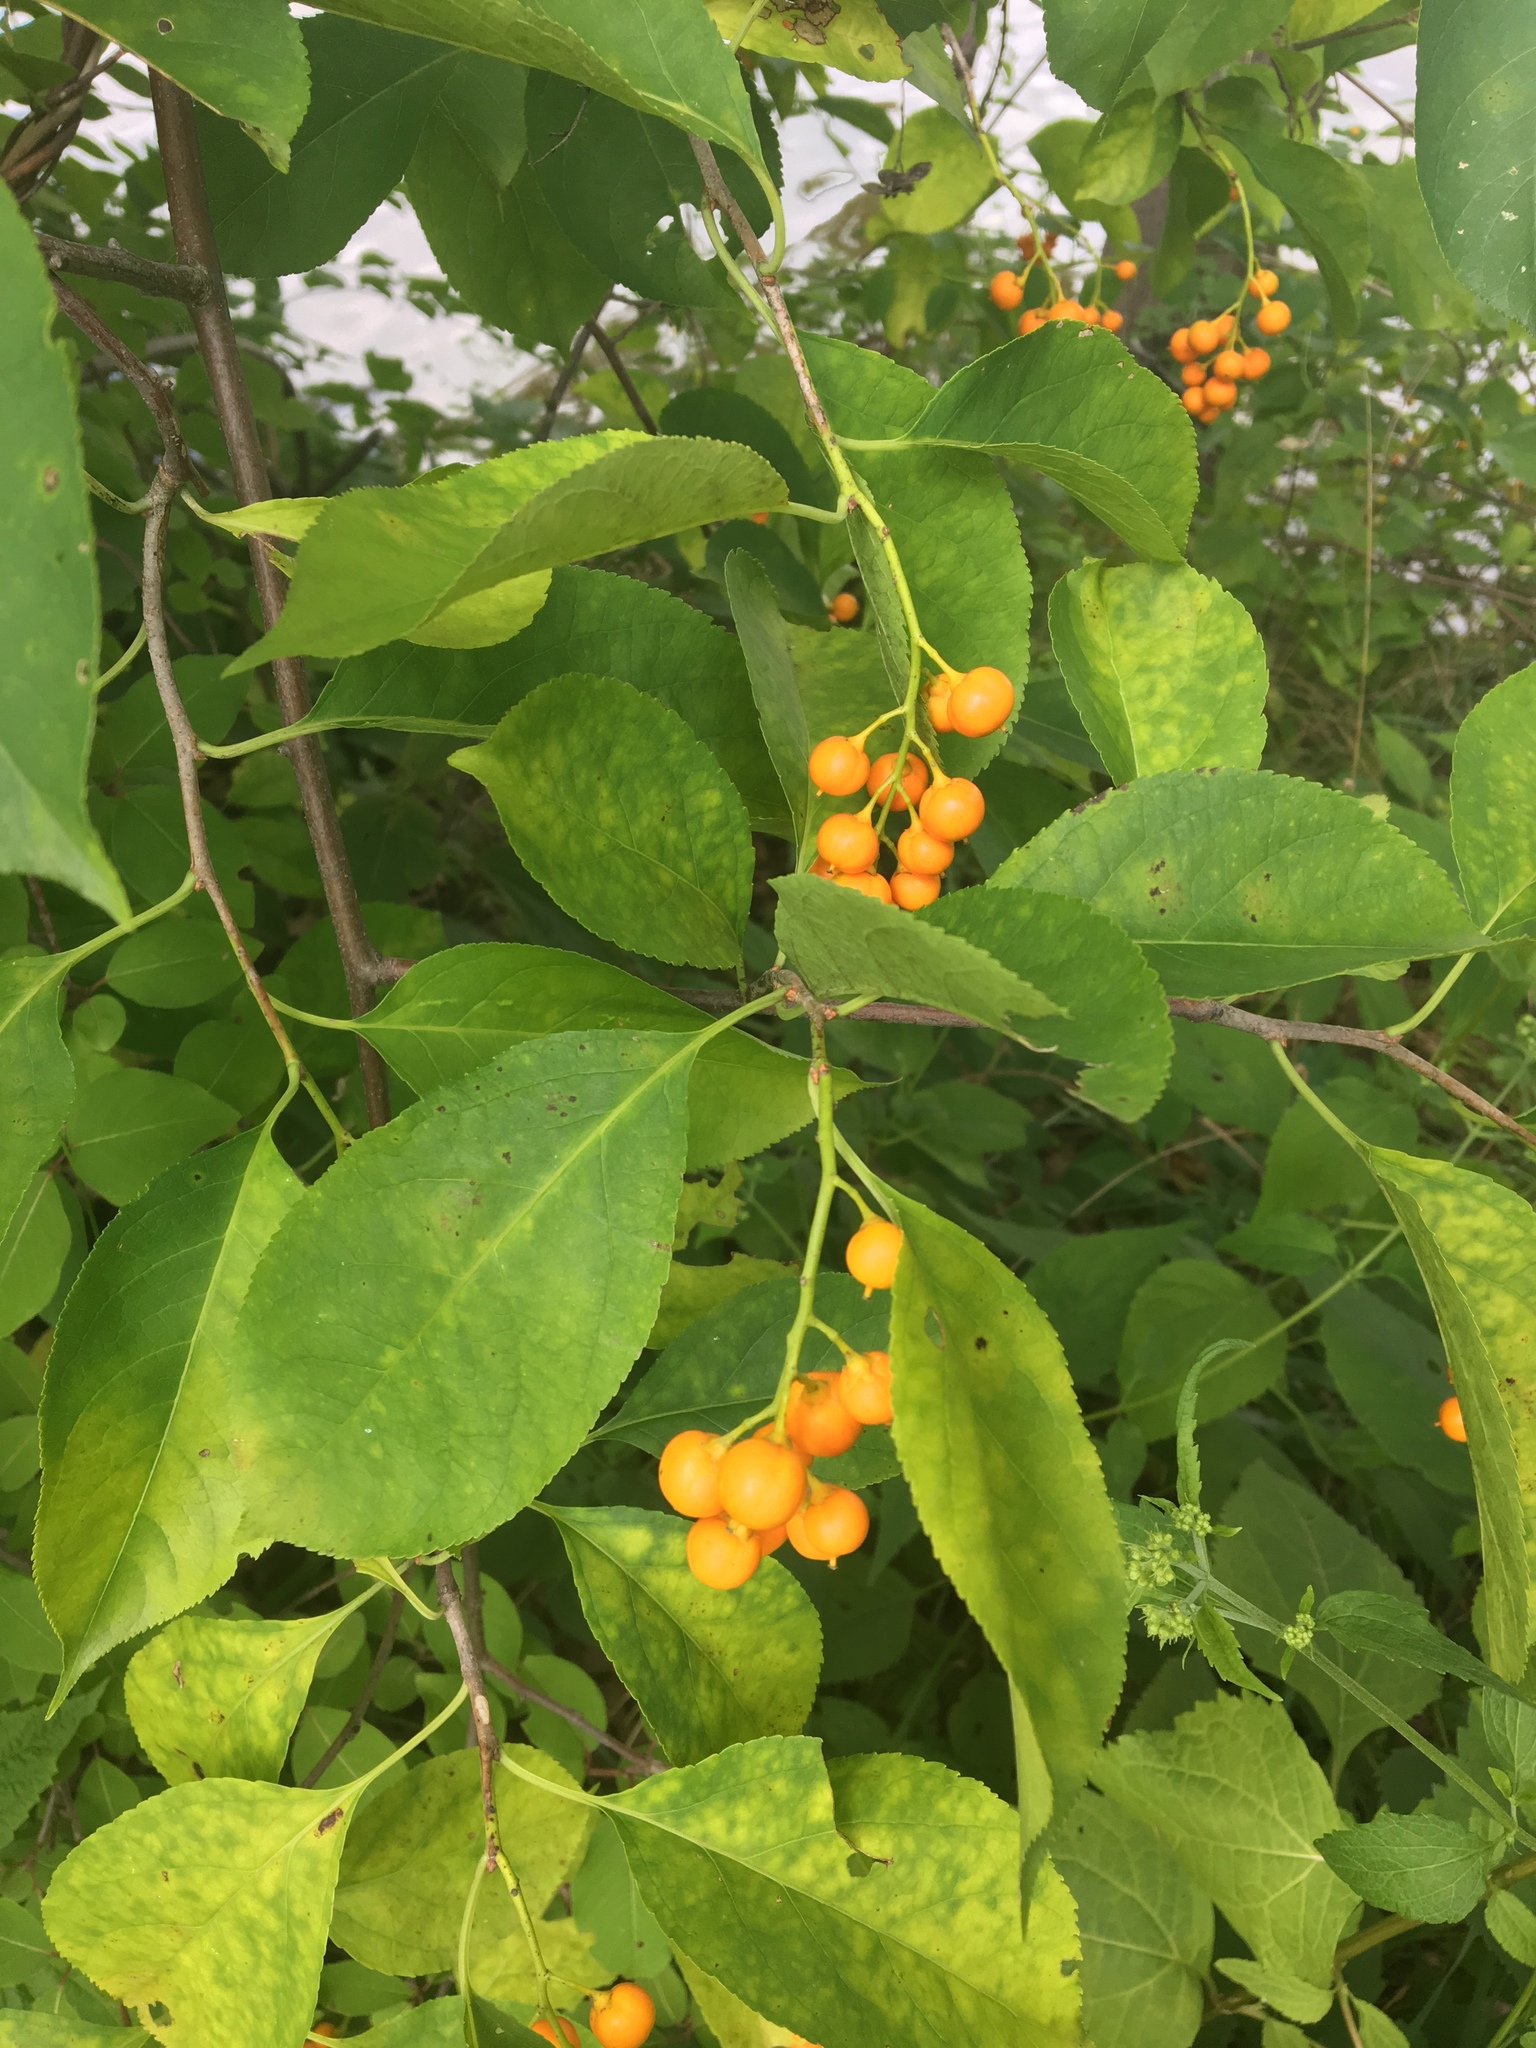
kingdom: Plantae
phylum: Tracheophyta
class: Magnoliopsida
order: Celastrales
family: Celastraceae
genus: Celastrus
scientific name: Celastrus scandens
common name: American bittersweet
